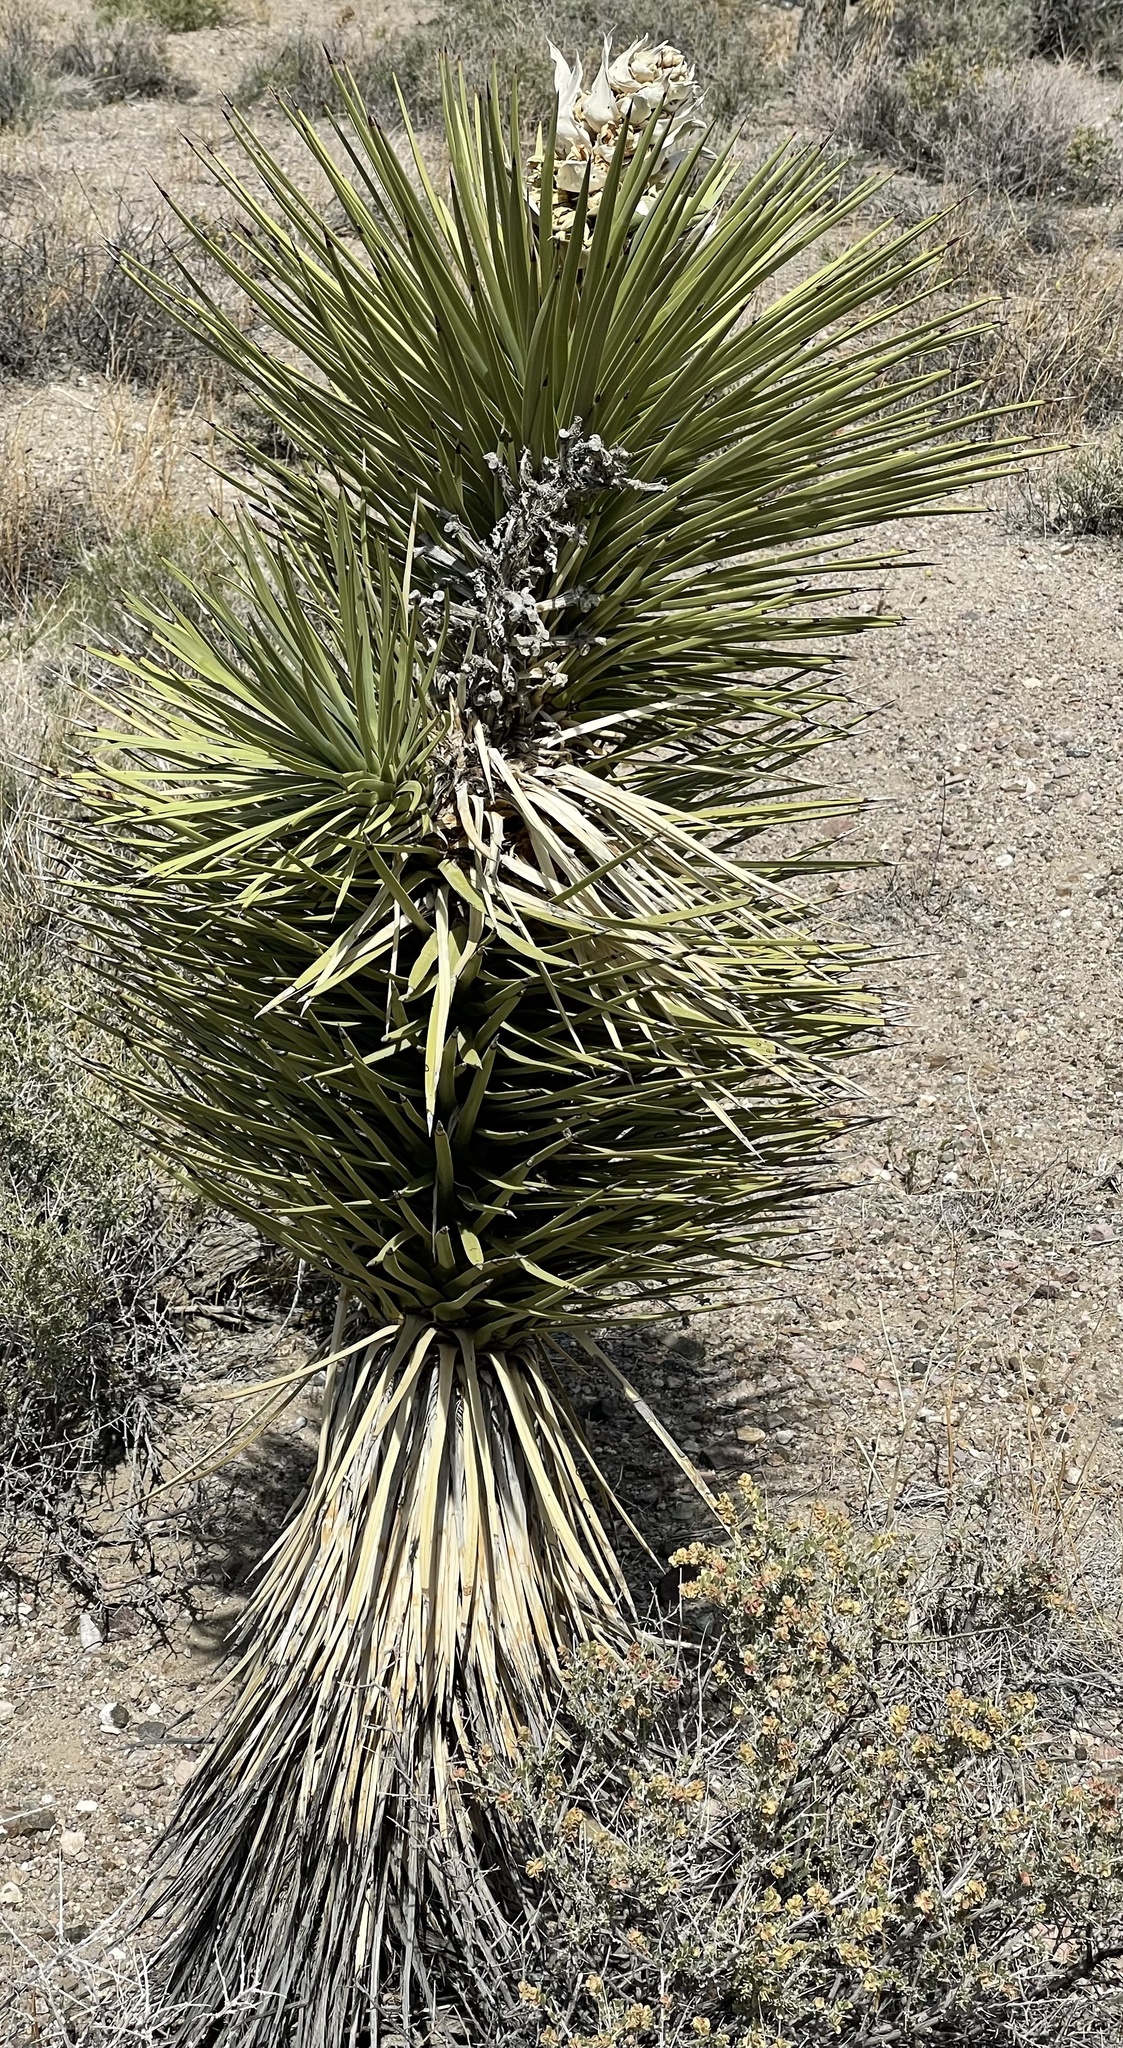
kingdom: Plantae
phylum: Tracheophyta
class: Liliopsida
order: Asparagales
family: Asparagaceae
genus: Yucca
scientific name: Yucca brevifolia
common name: Joshua tree
